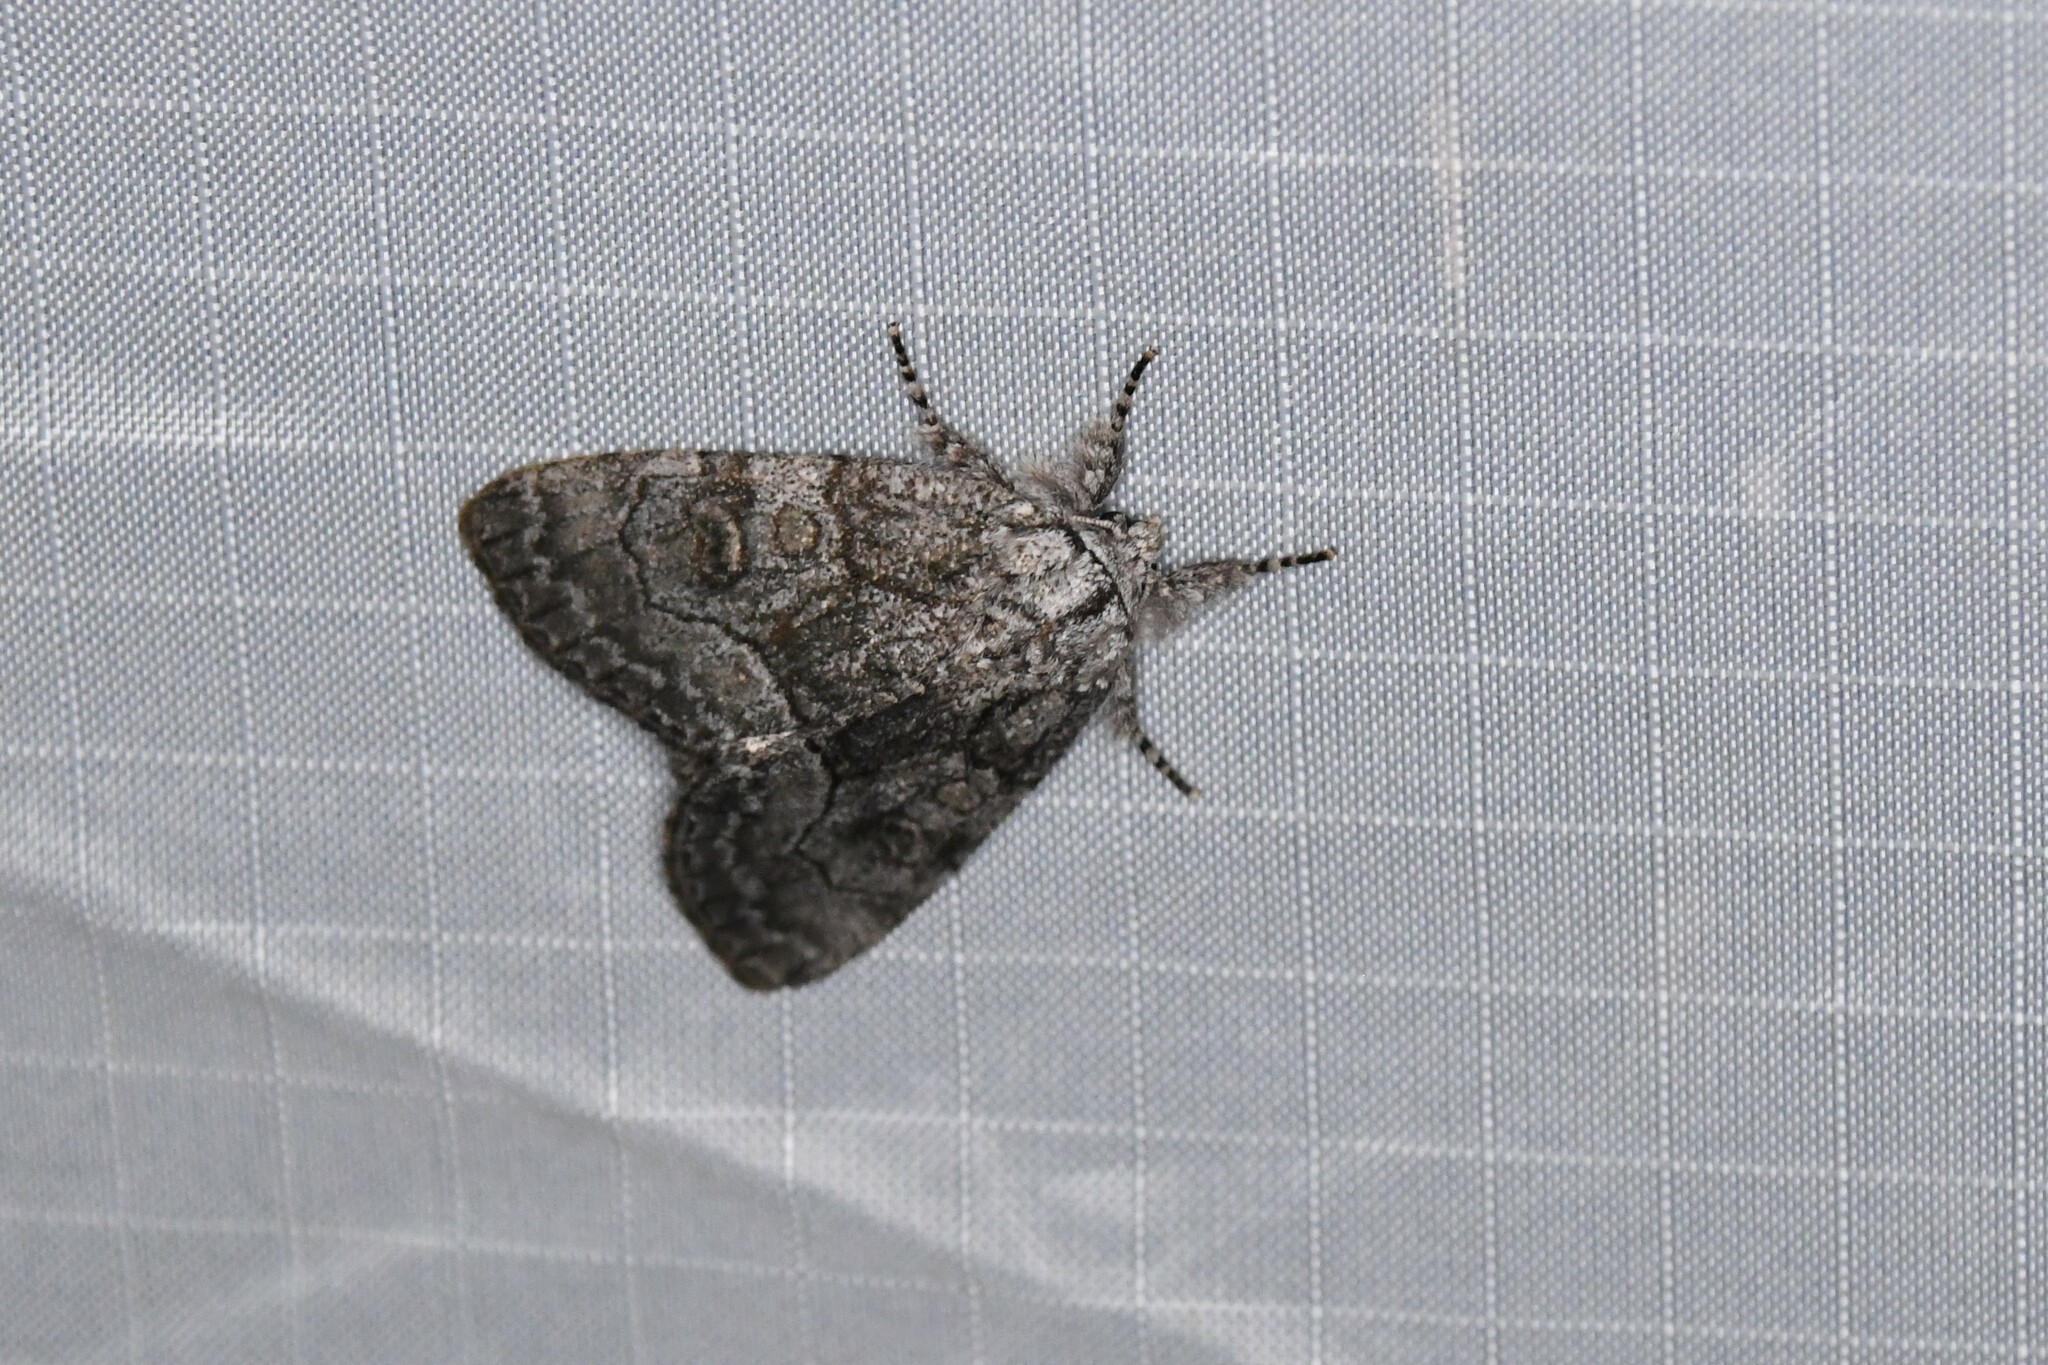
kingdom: Animalia
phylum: Arthropoda
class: Insecta
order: Lepidoptera
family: Noctuidae
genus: Raphia
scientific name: Raphia frater
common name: Brother
